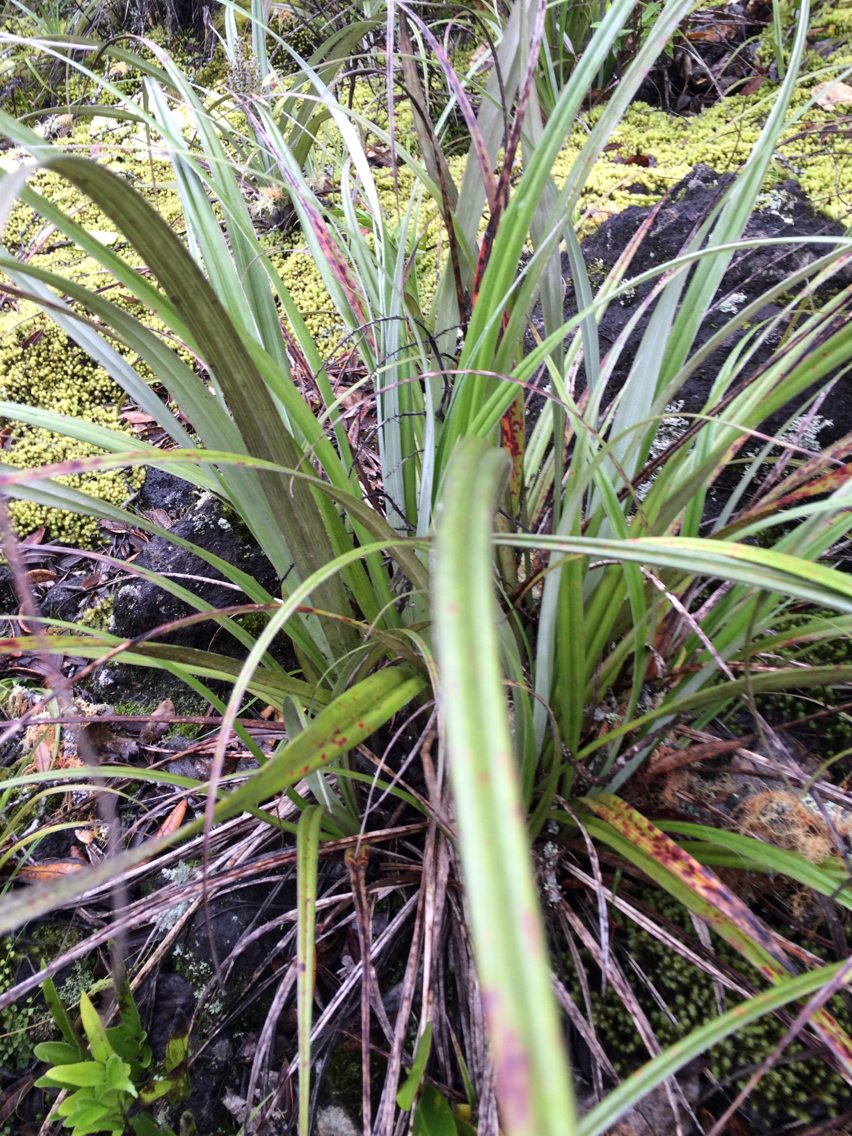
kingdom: Plantae
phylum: Tracheophyta
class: Liliopsida
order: Asparagales
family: Asteliaceae
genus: Astelia
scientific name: Astelia banksii
